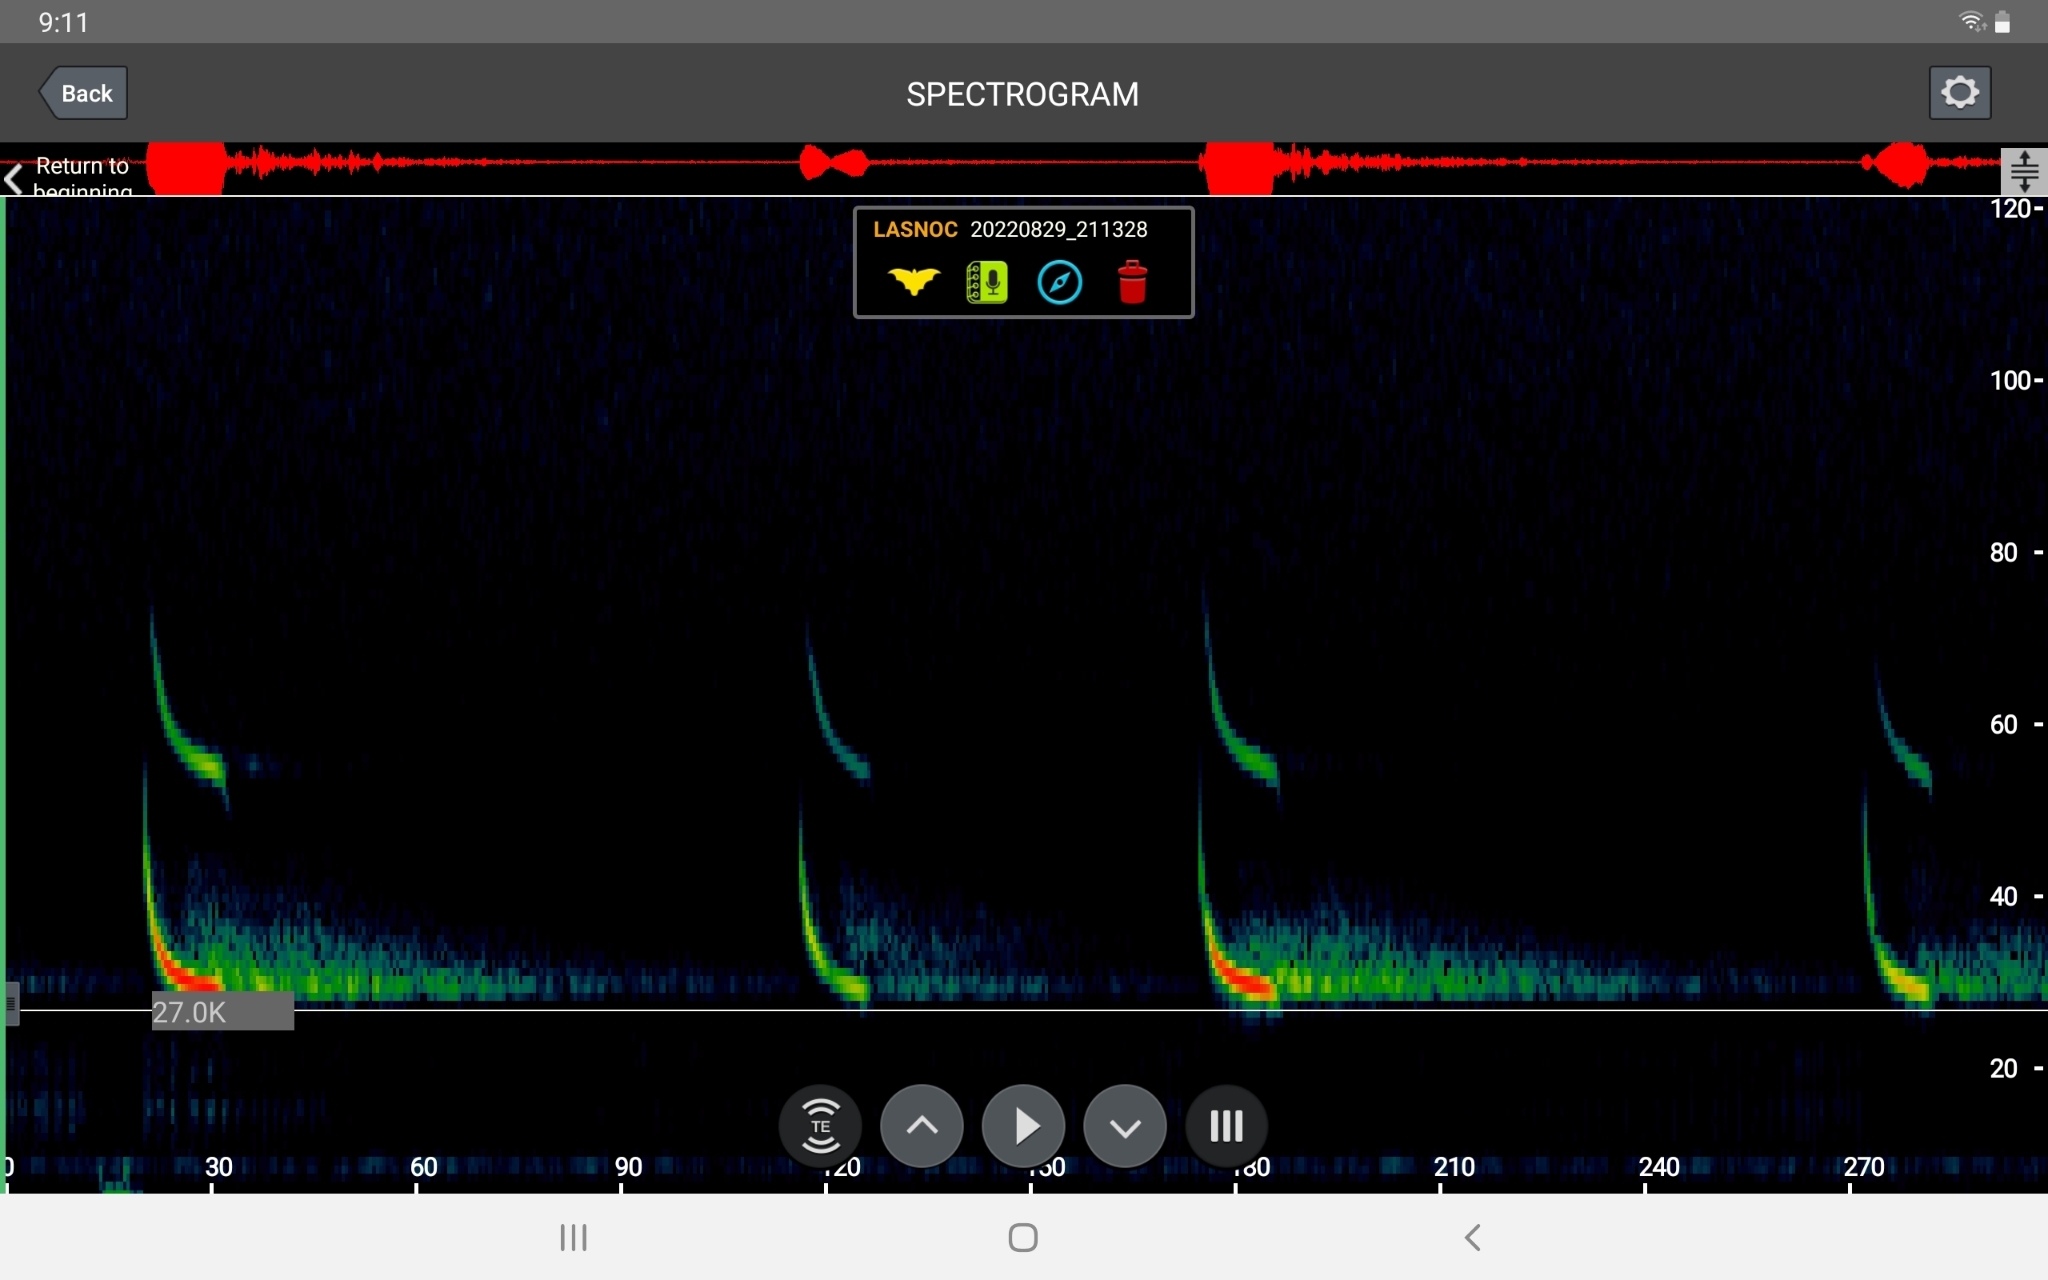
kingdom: Animalia
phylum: Chordata
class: Mammalia
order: Chiroptera
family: Vespertilionidae
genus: Lasionycteris
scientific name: Lasionycteris noctivagans
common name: Silver-haired bat
